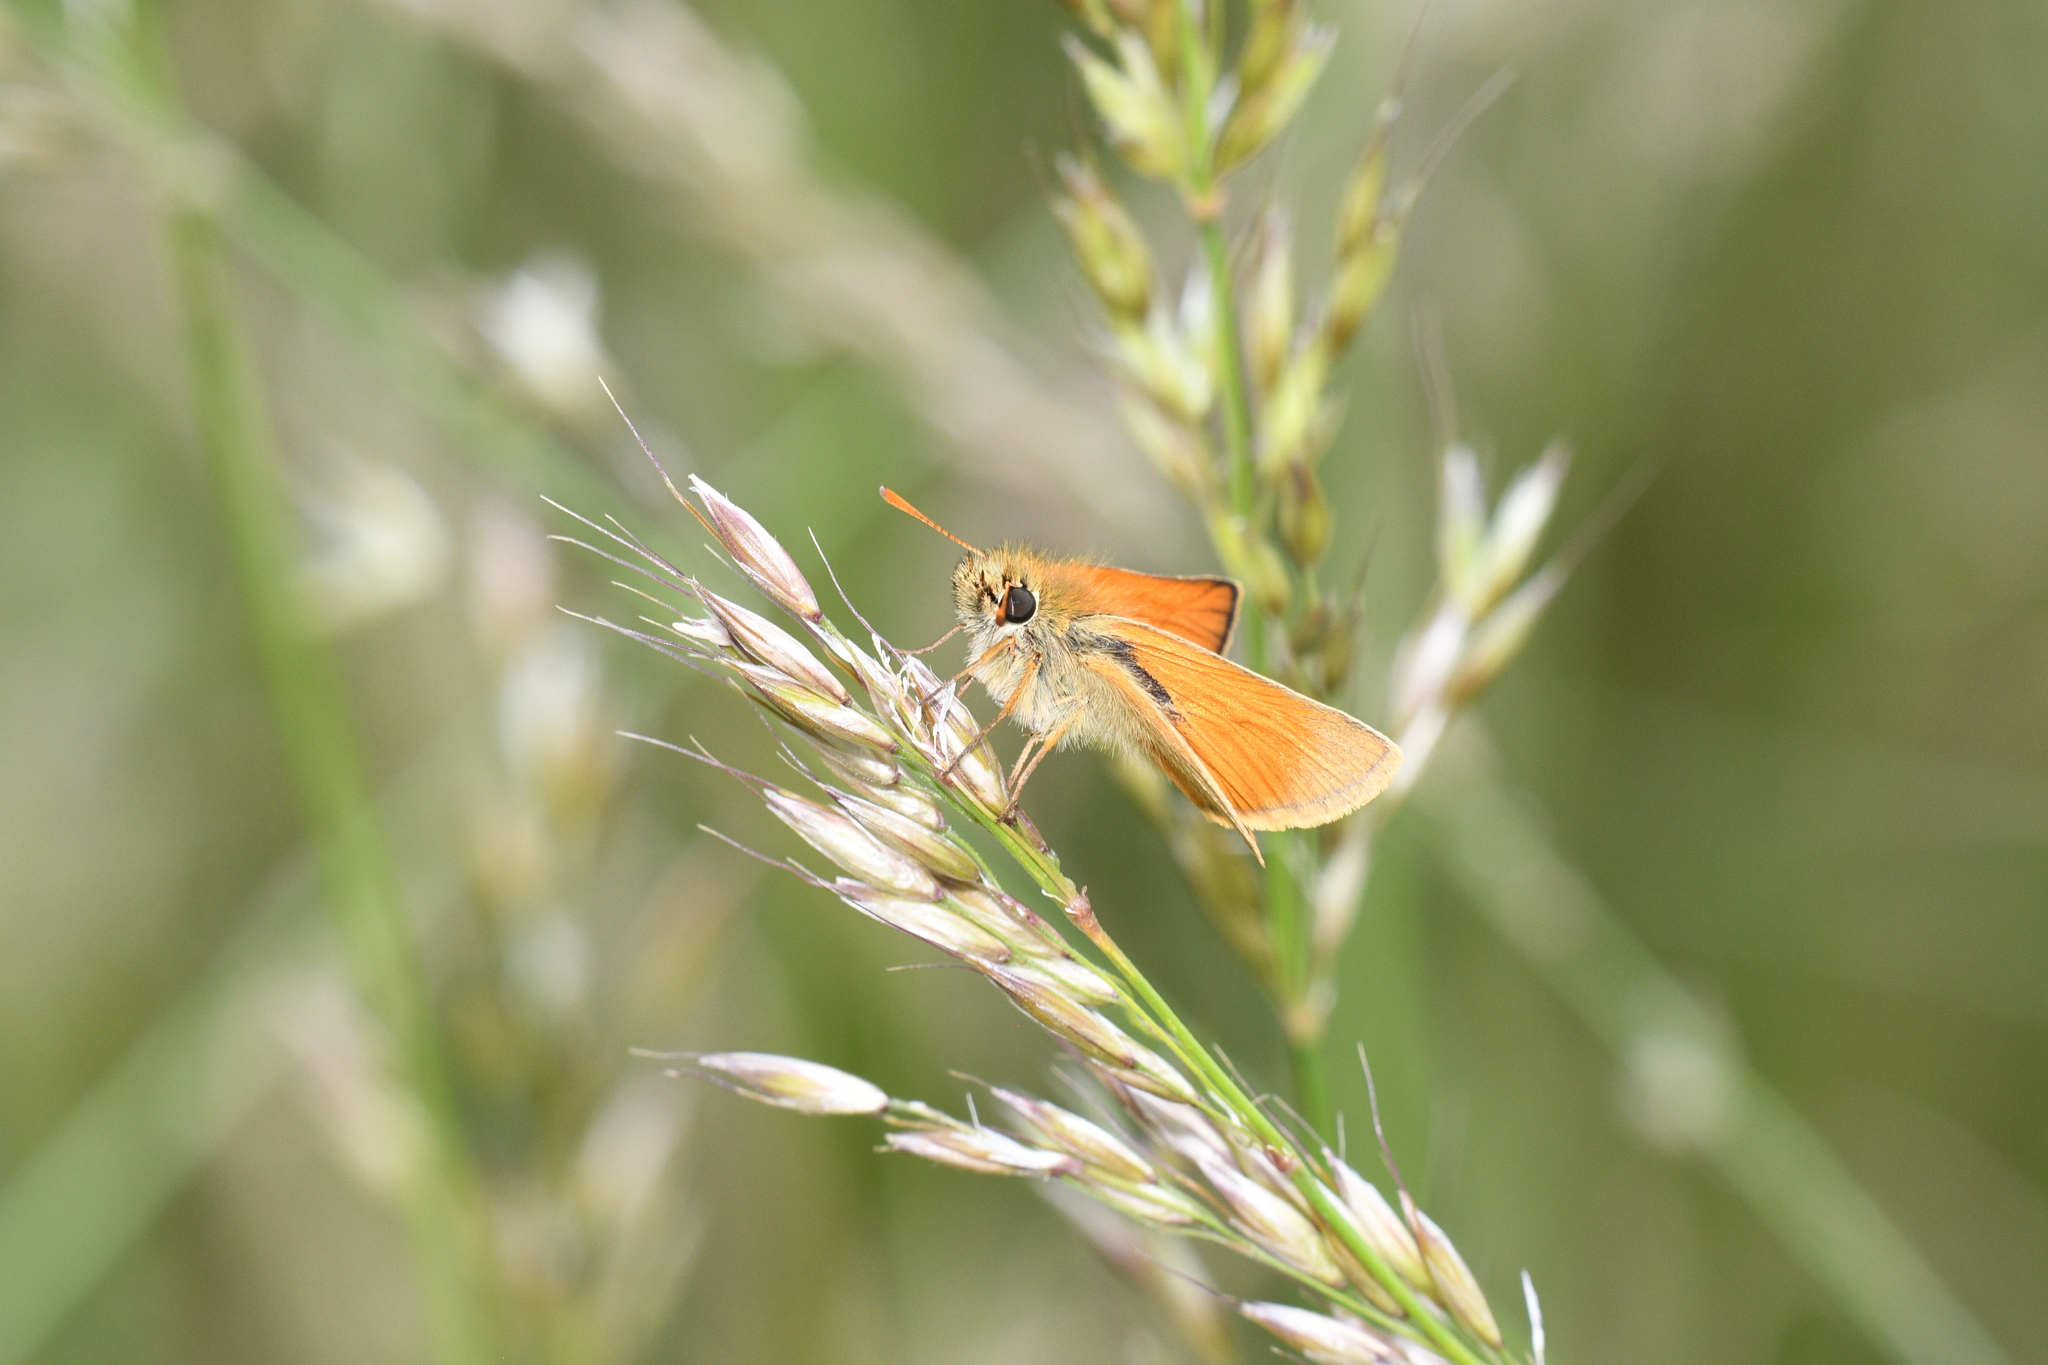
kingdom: Animalia
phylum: Arthropoda
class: Insecta
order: Lepidoptera
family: Hesperiidae
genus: Thymelicus
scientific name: Thymelicus sylvestris
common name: Small skipper
